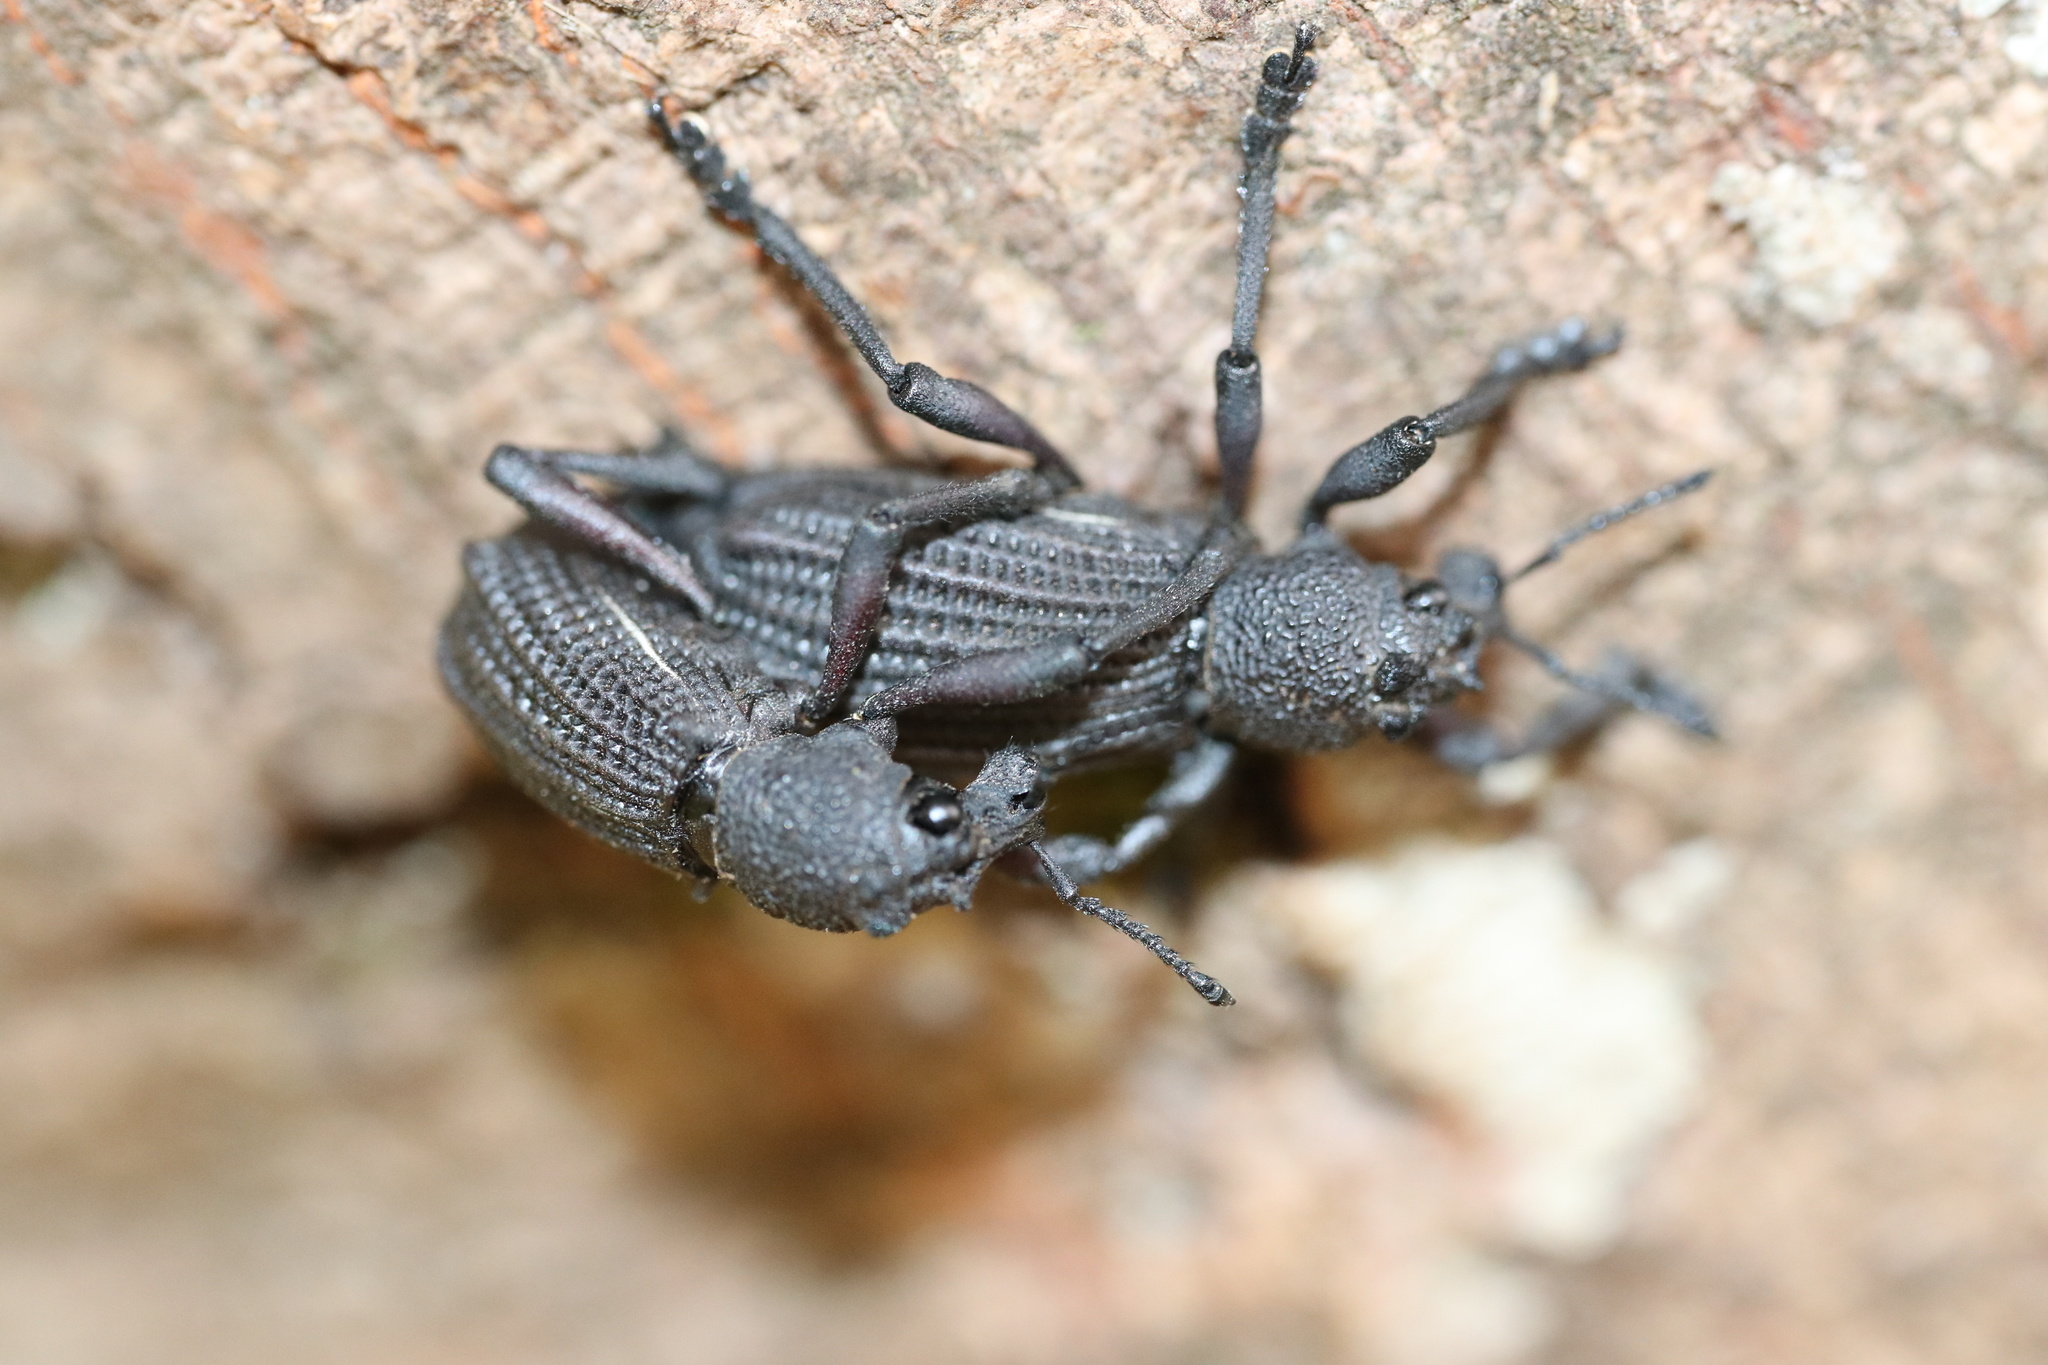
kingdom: Animalia
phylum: Arthropoda
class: Insecta
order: Coleoptera
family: Curculionidae
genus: Aegorhinus
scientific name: Aegorhinus
